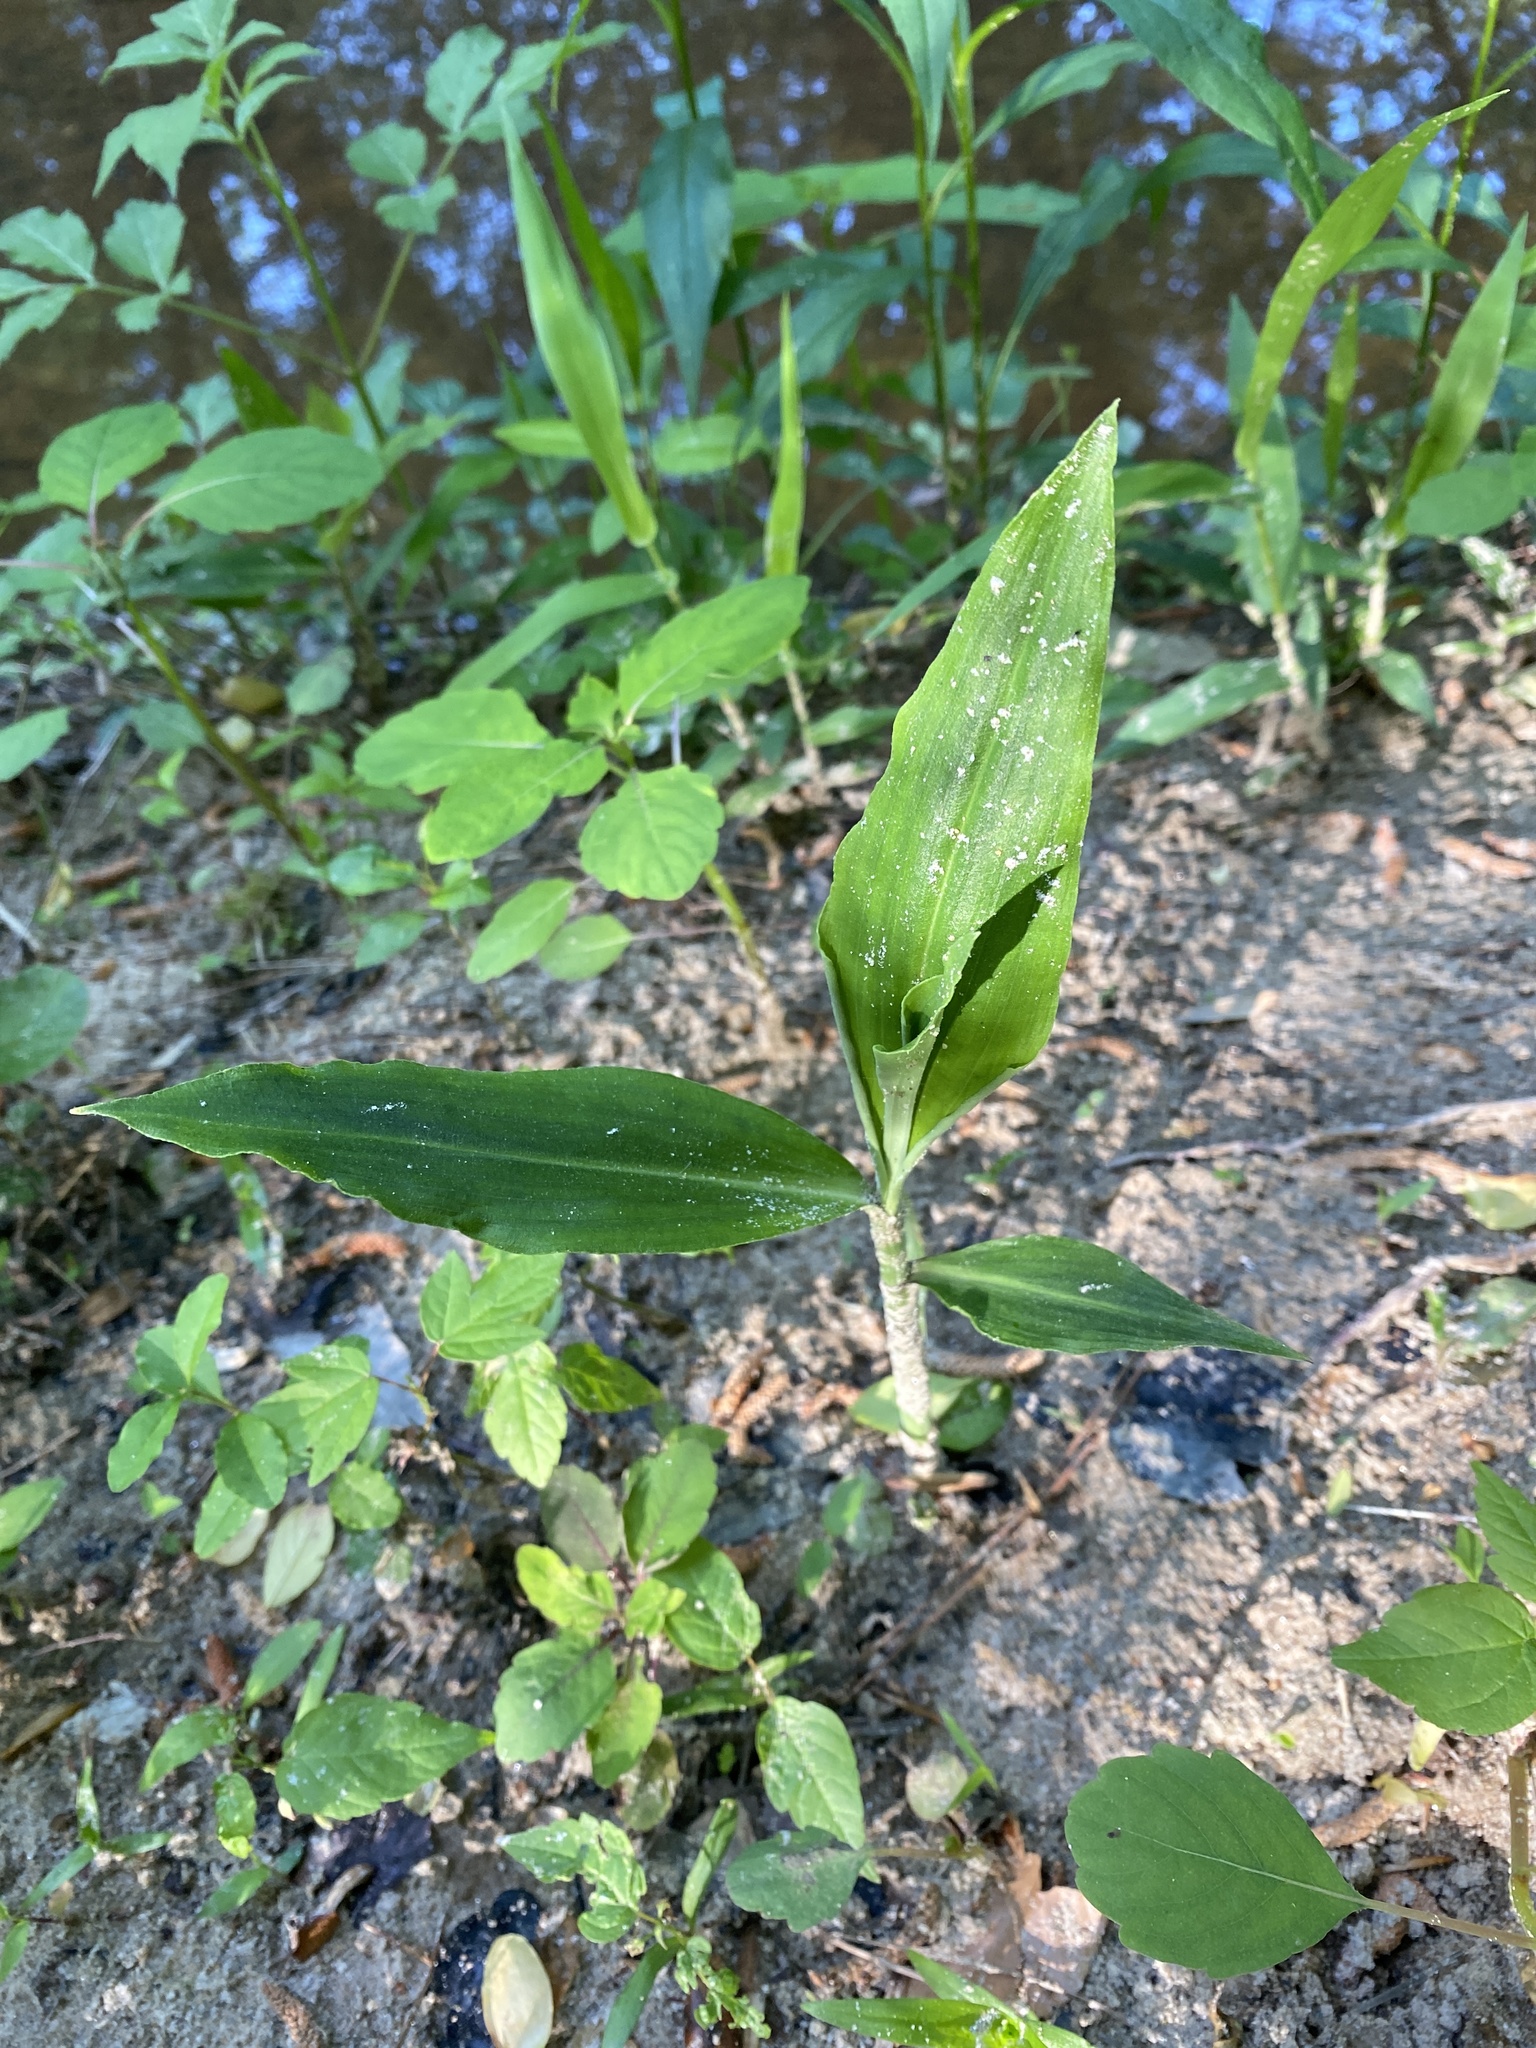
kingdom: Plantae
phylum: Tracheophyta
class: Liliopsida
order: Commelinales
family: Commelinaceae
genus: Commelina
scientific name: Commelina virginica
